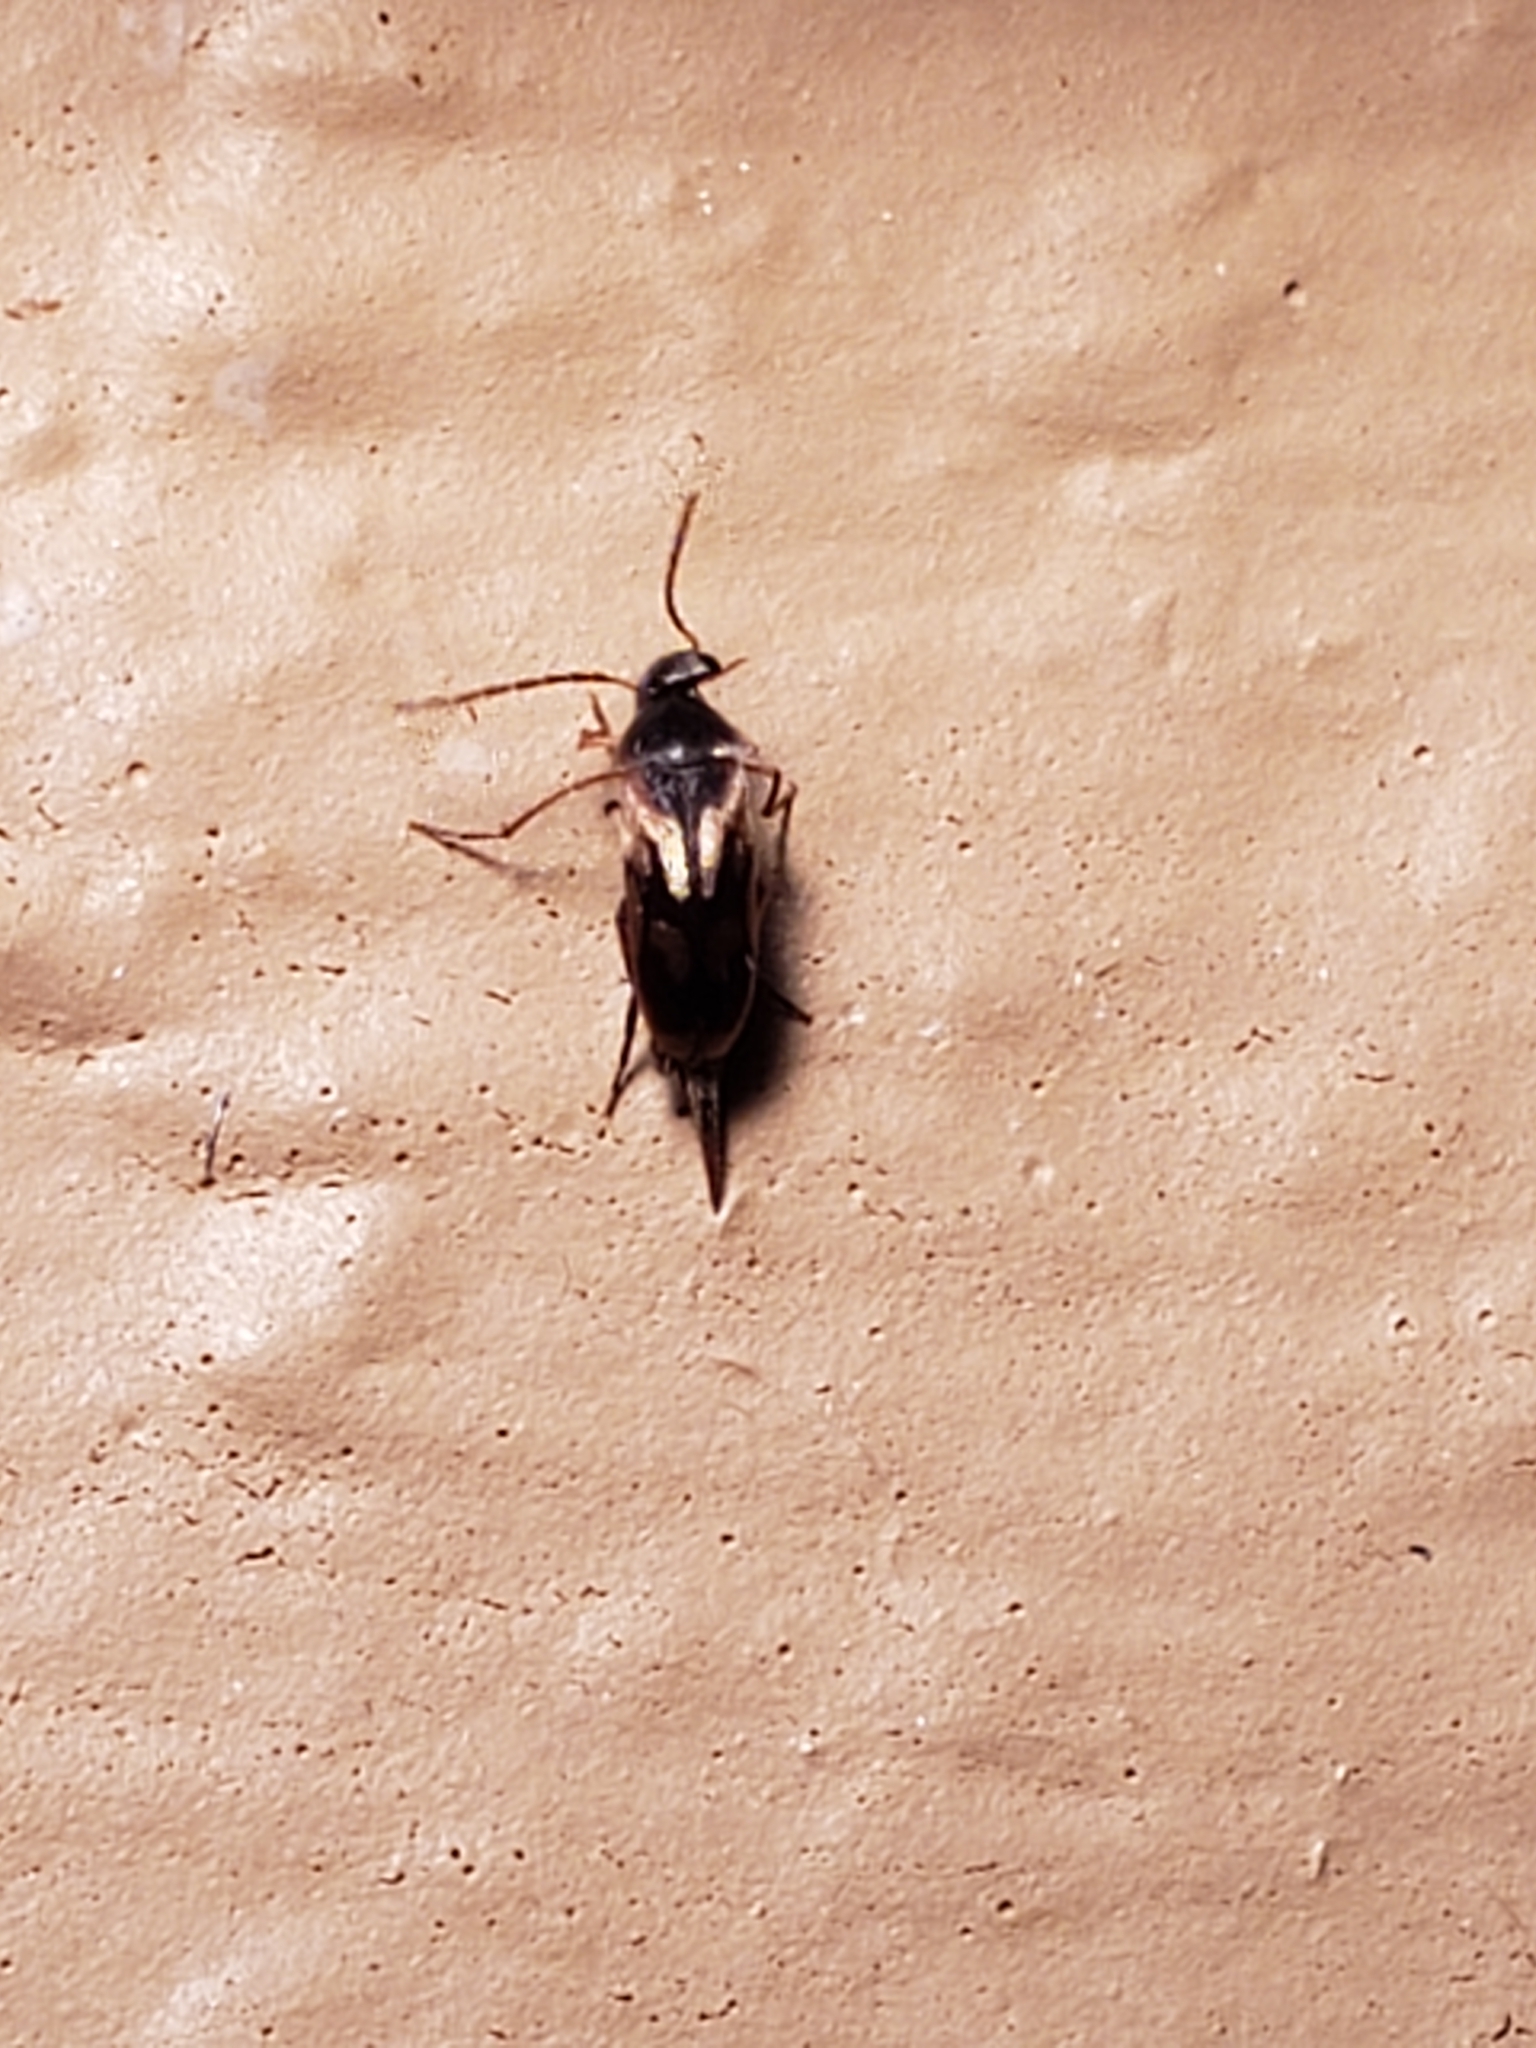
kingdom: Animalia
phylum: Arthropoda
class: Insecta
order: Coleoptera
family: Mordellidae
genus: Falsomordellistena
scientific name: Falsomordellistena bihamata
